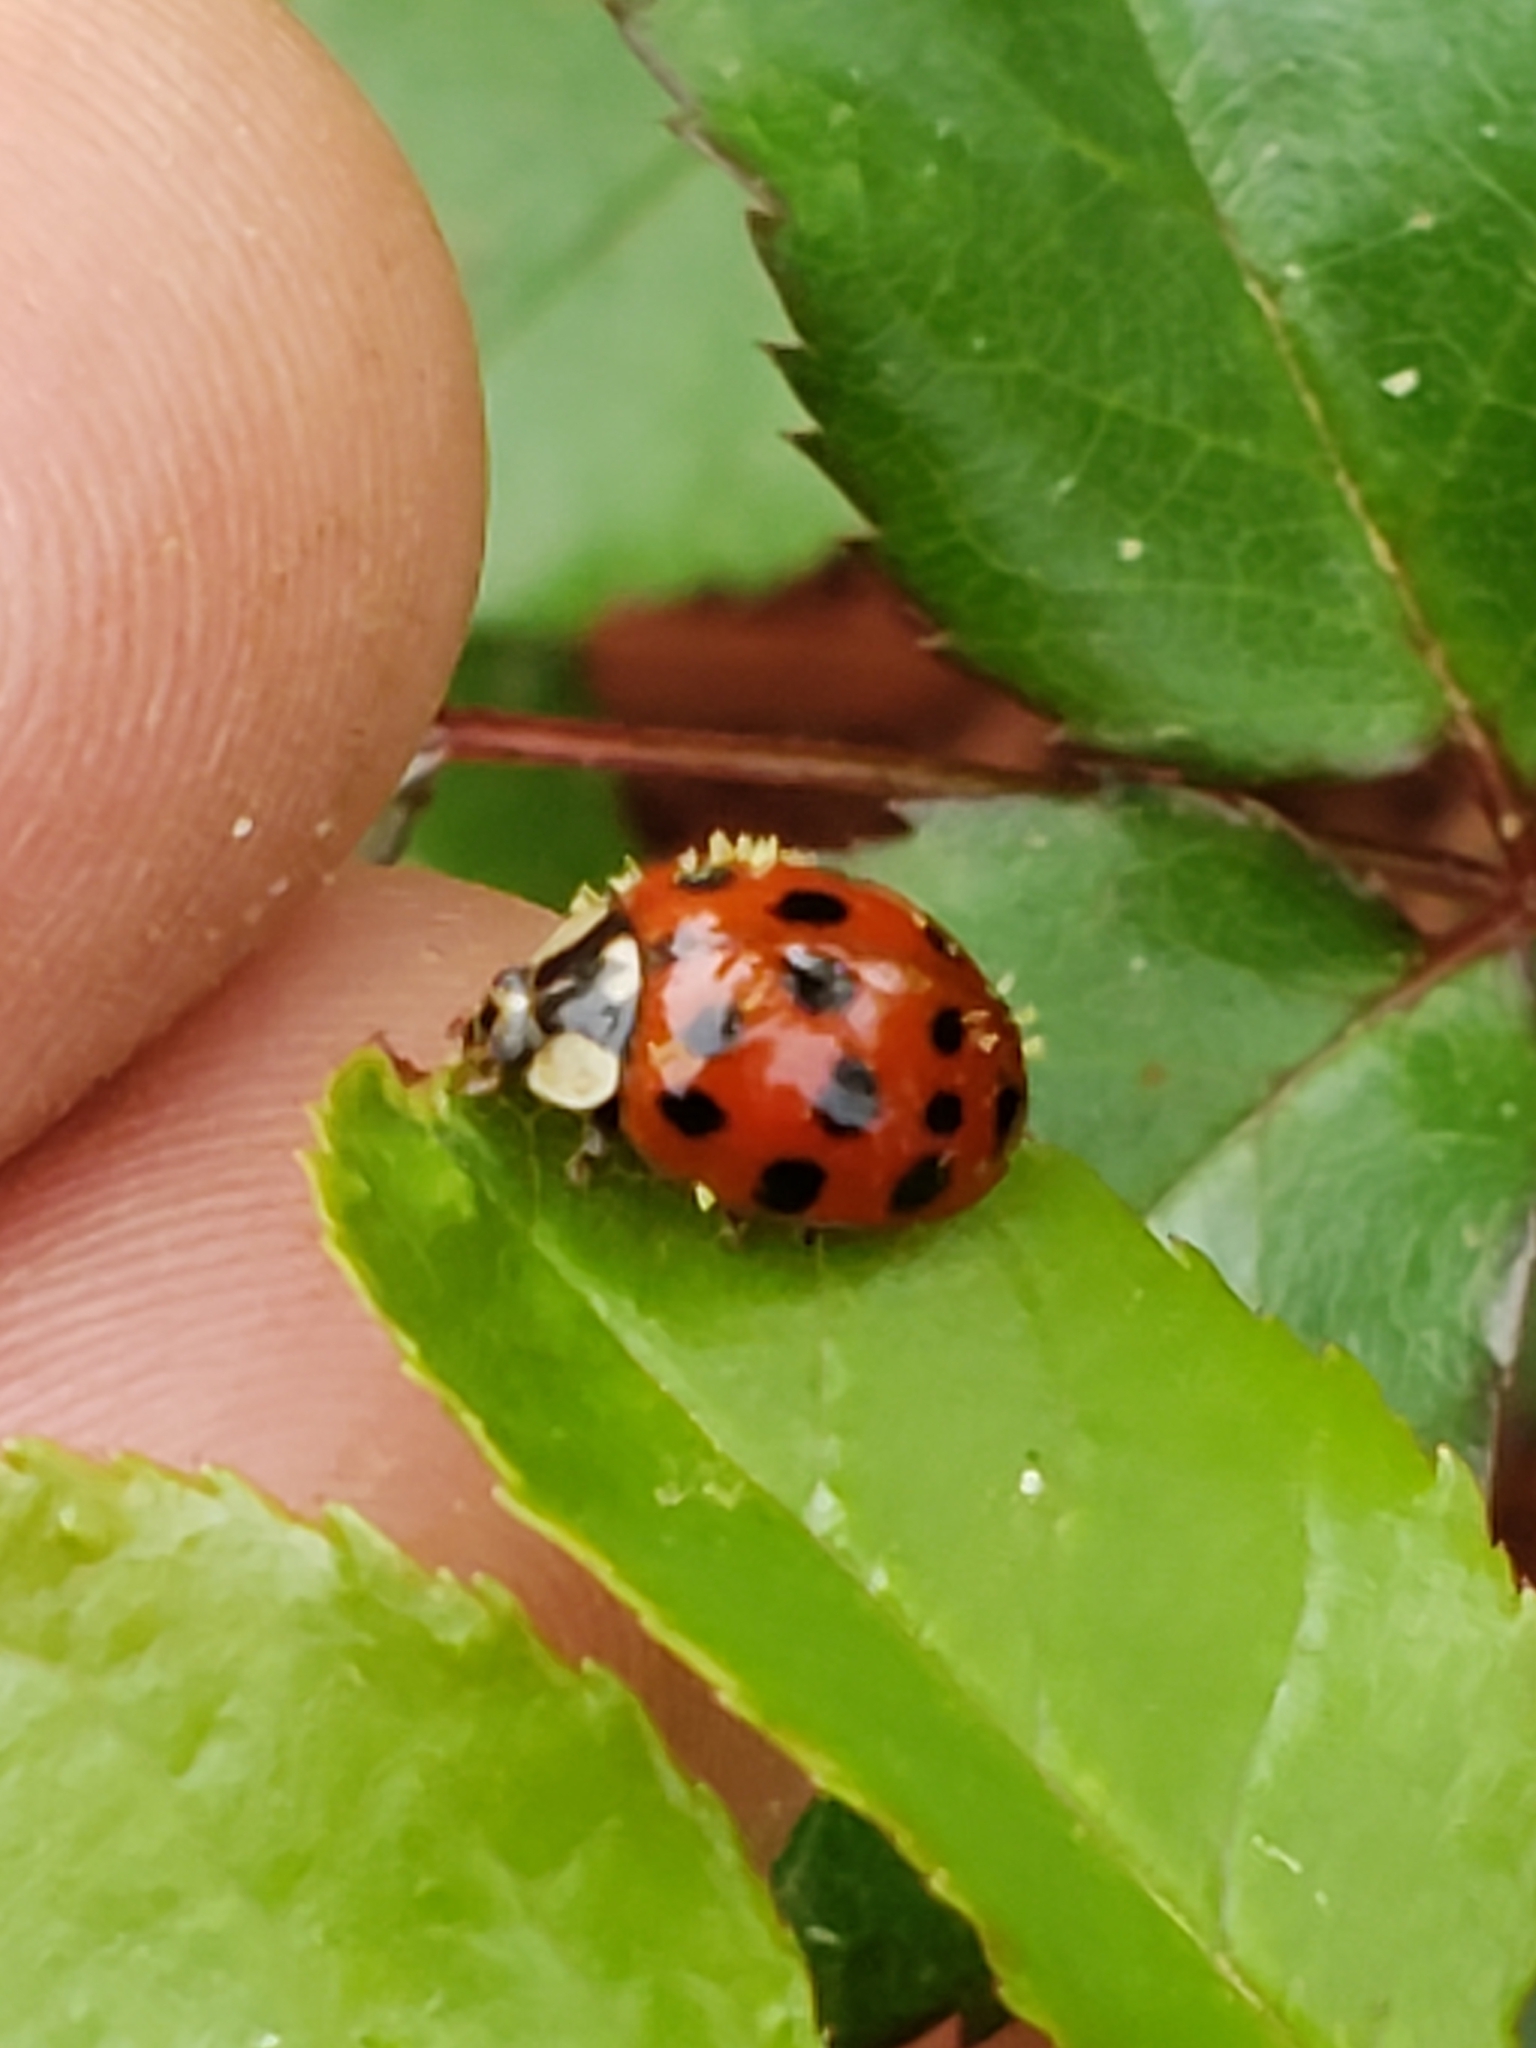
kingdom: Animalia
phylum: Arthropoda
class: Insecta
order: Coleoptera
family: Coccinellidae
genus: Harmonia
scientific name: Harmonia axyridis
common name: Harlequin ladybird
